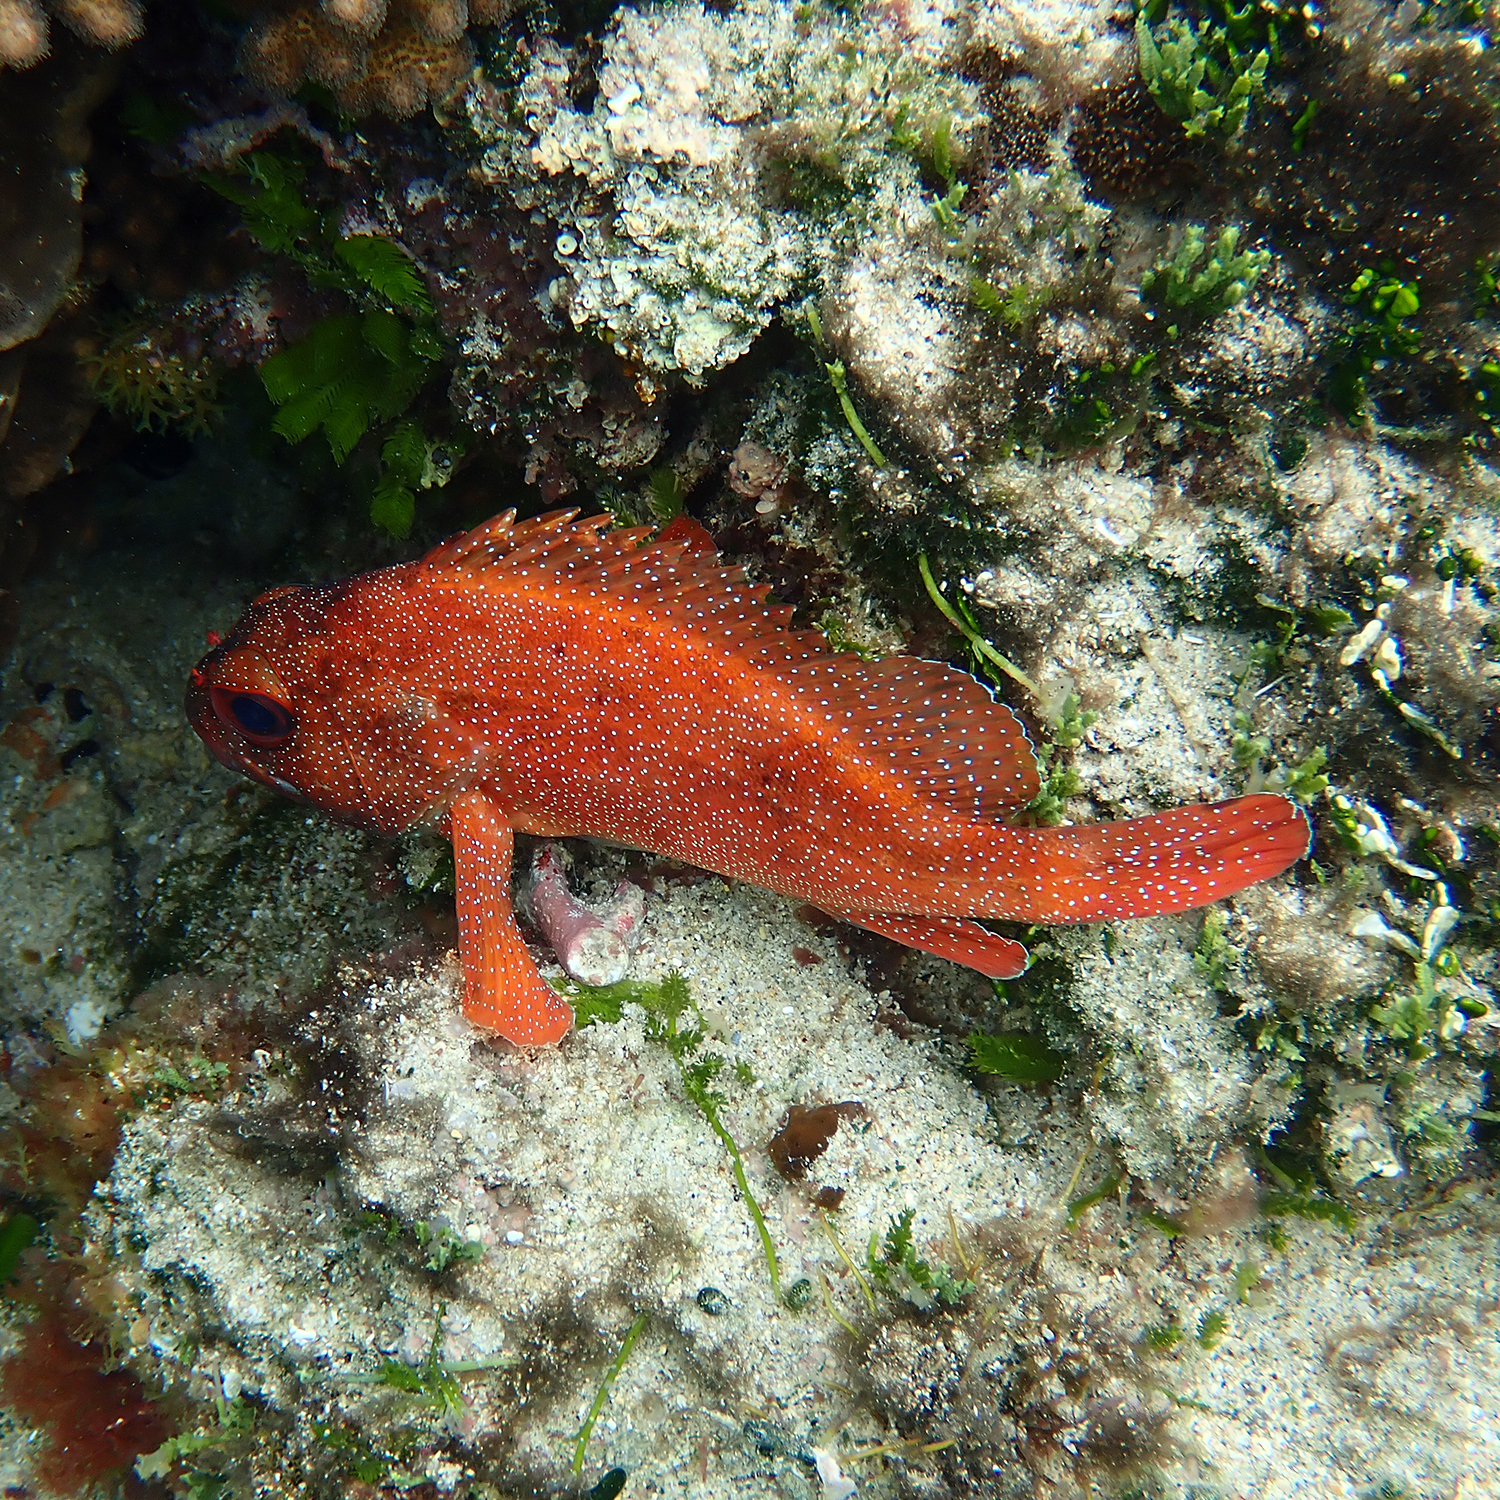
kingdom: Animalia
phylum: Chordata
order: Perciformes
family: Serranidae
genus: Trachypoma
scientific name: Trachypoma macracanthus
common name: Toadstool grouper
